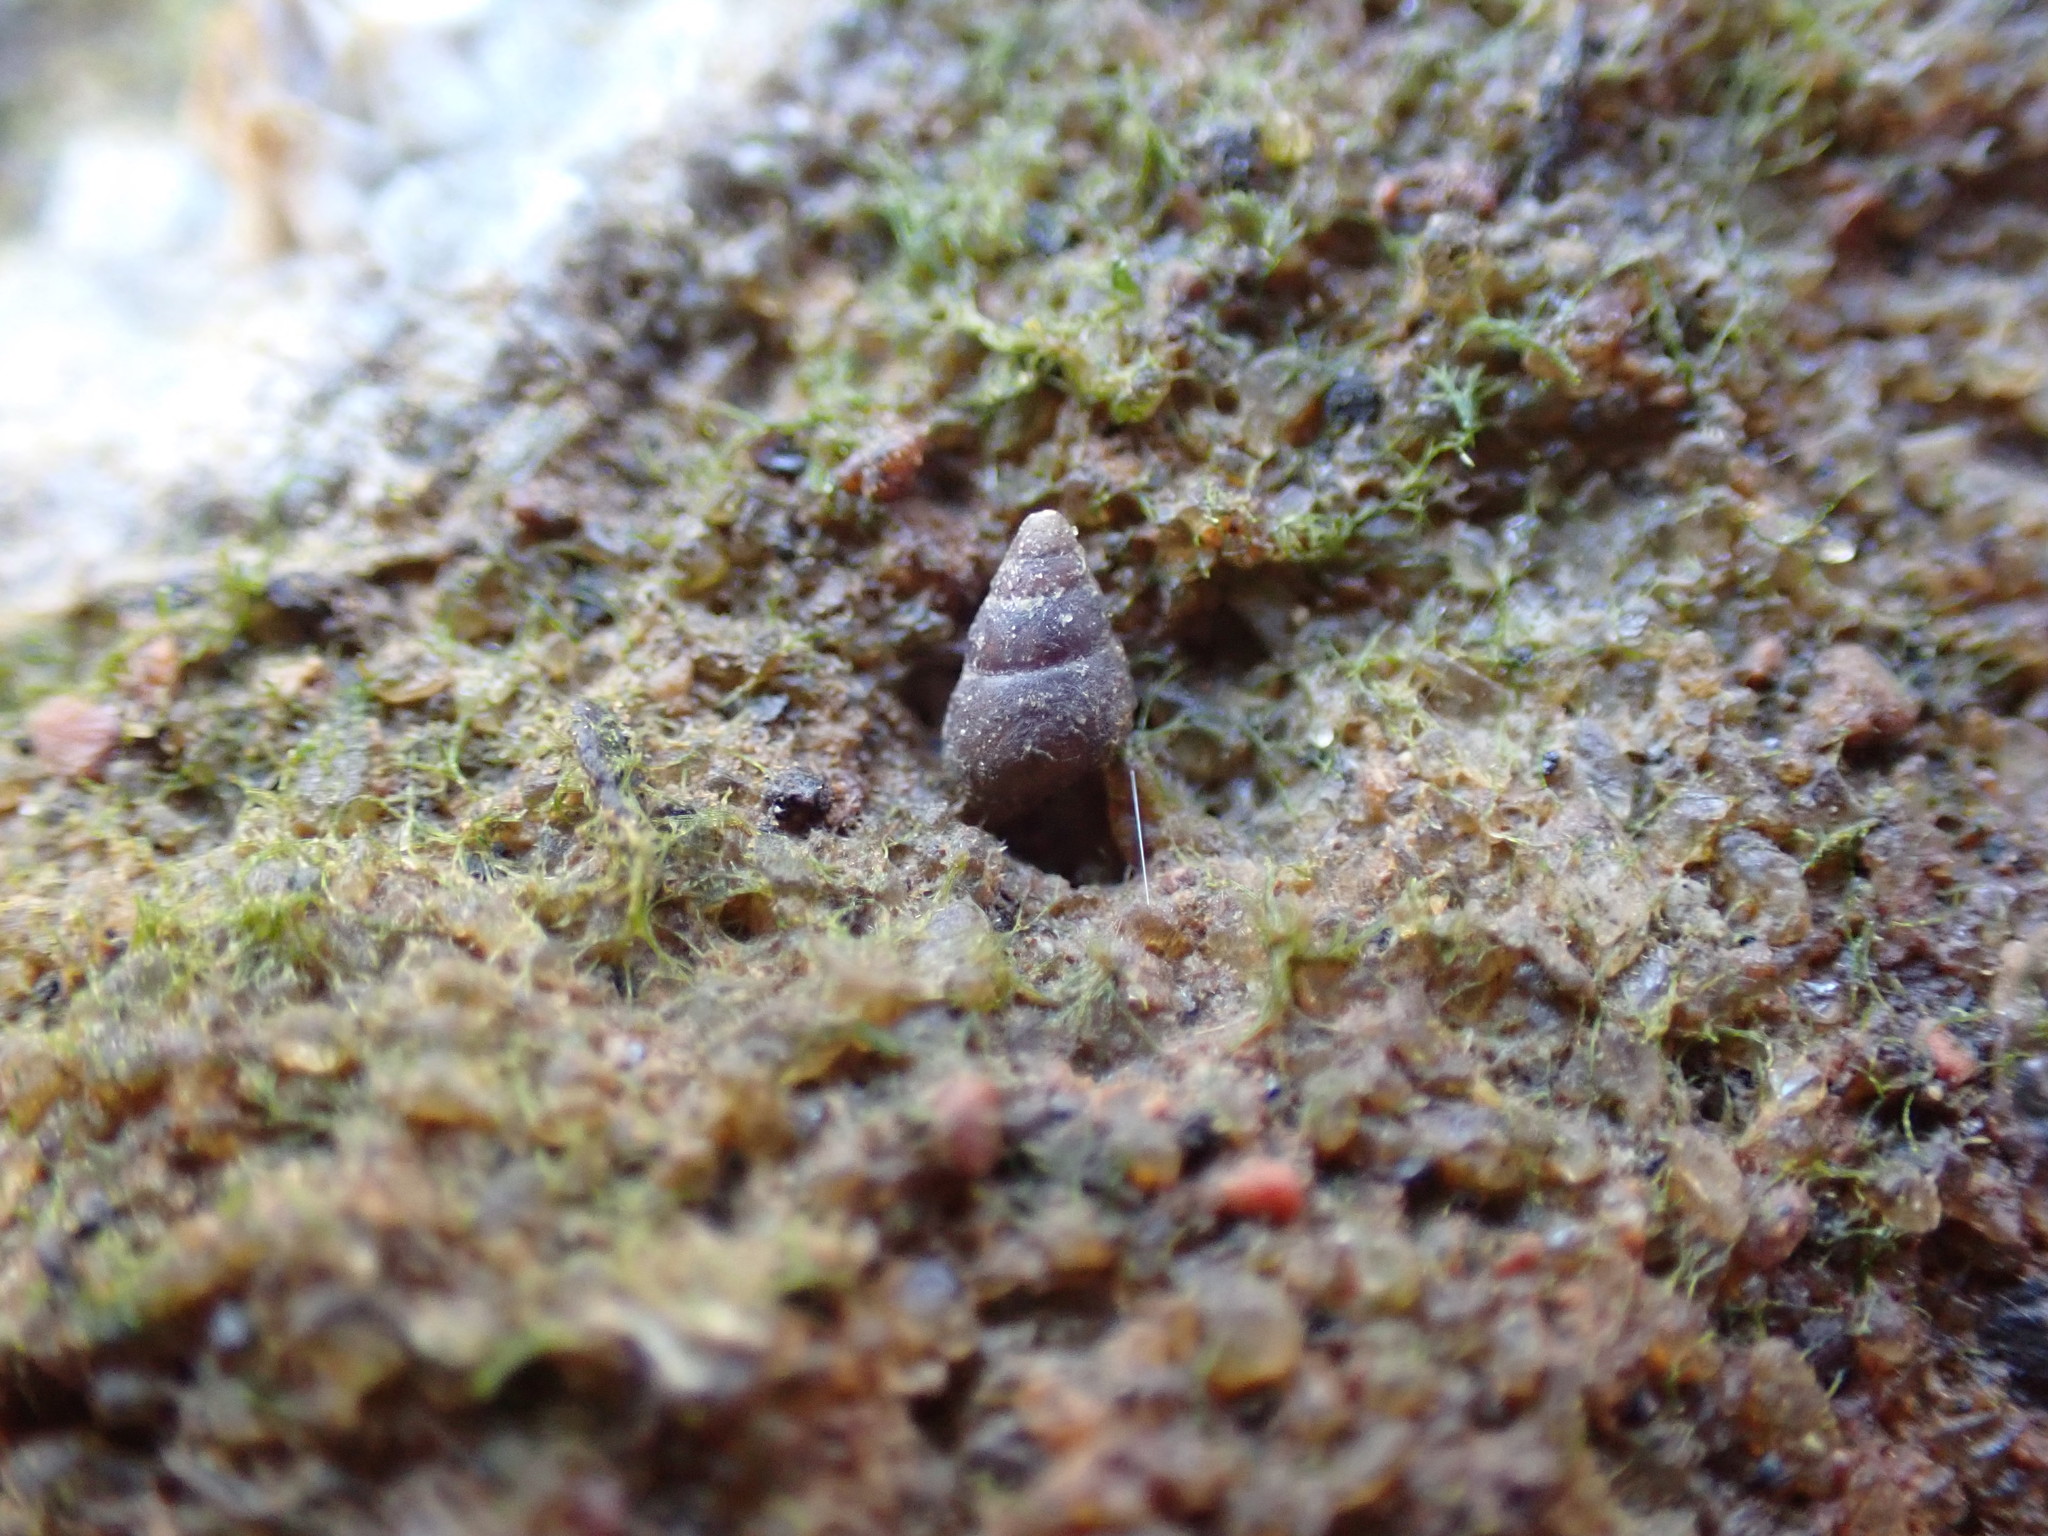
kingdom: Animalia
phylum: Mollusca
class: Gastropoda
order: Littorinimorpha
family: Eatoniellidae
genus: Eatoniella
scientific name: Eatoniella olivacea
